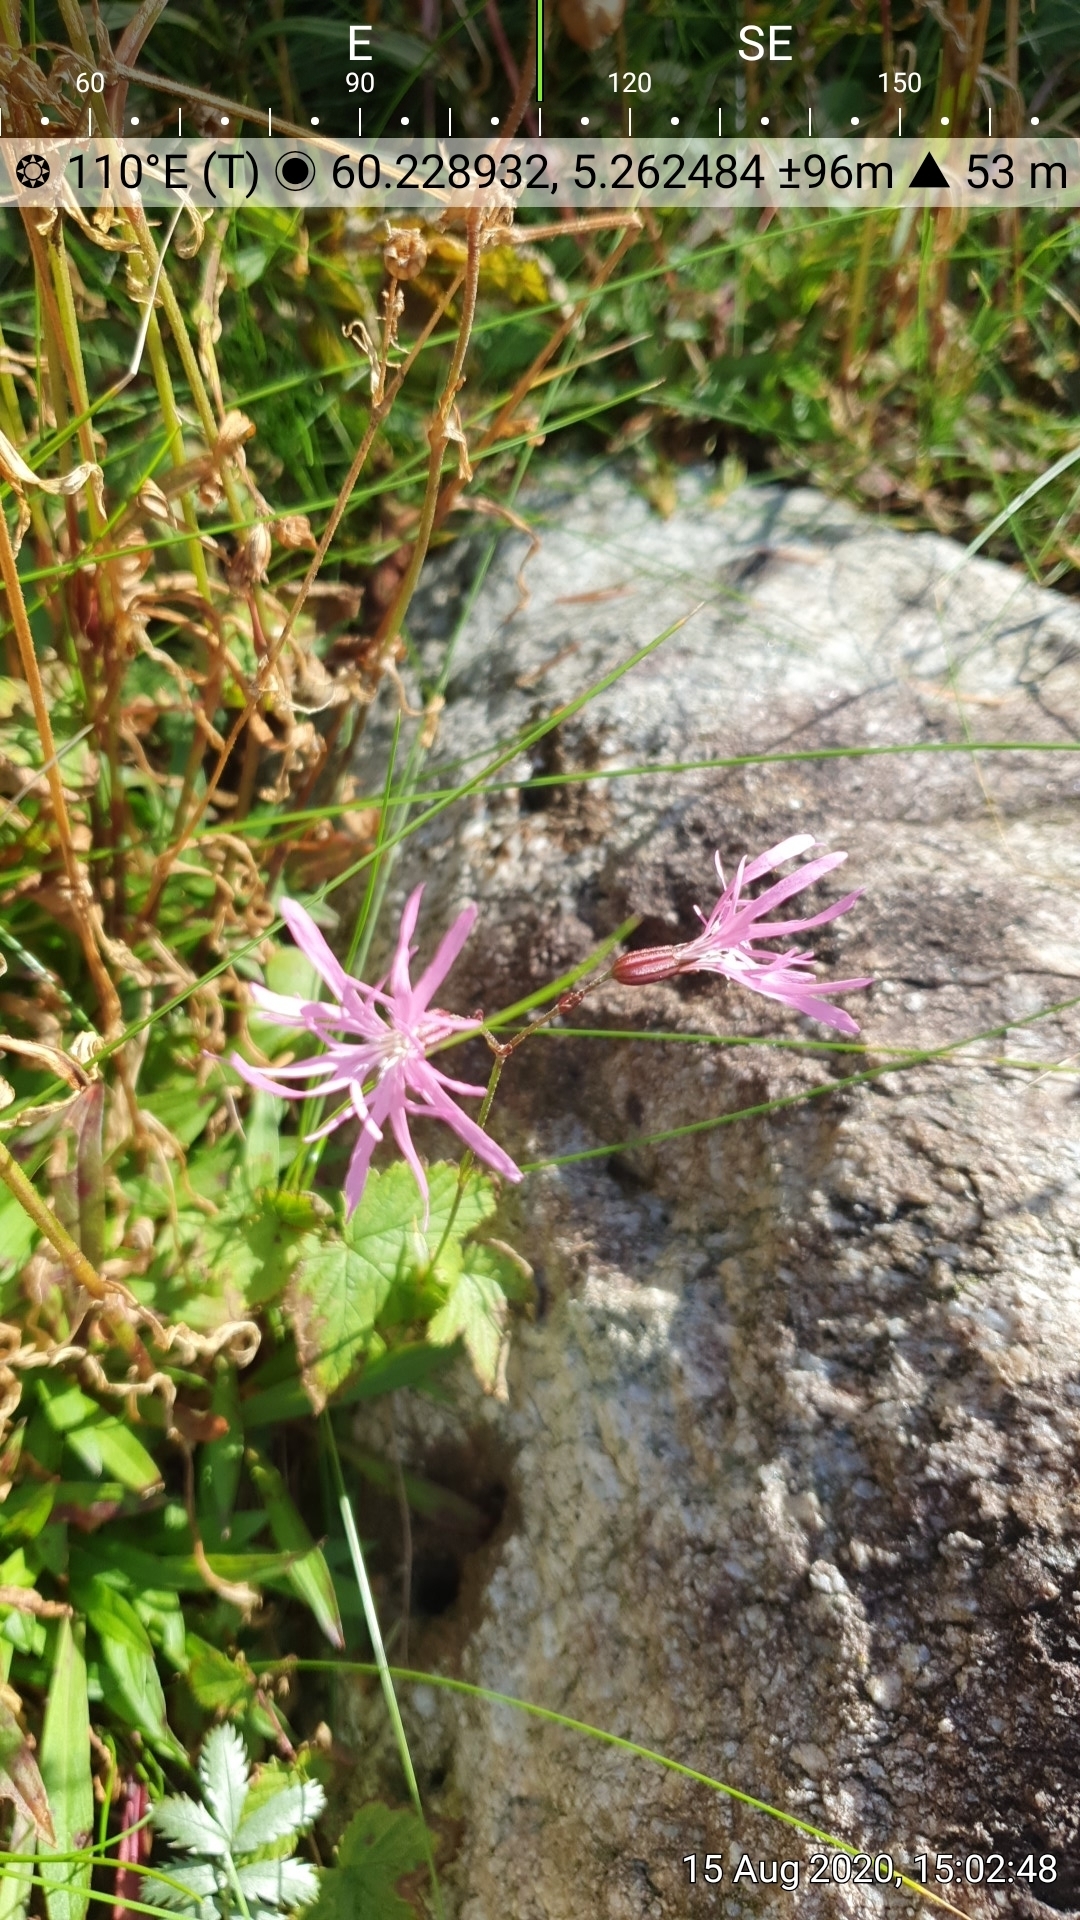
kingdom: Plantae
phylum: Tracheophyta
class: Magnoliopsida
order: Caryophyllales
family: Caryophyllaceae
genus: Silene
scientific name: Silene flos-cuculi
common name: Ragged-robin
